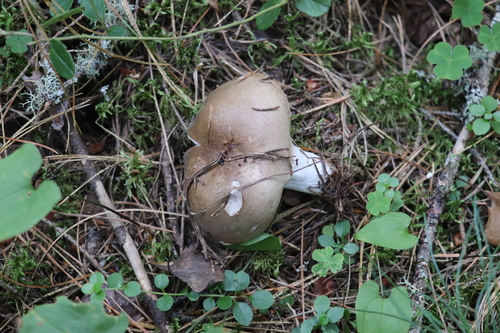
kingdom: Fungi
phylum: Basidiomycota
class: Agaricomycetes
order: Russulales
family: Russulaceae
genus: Russula
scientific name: Russula consobrina
